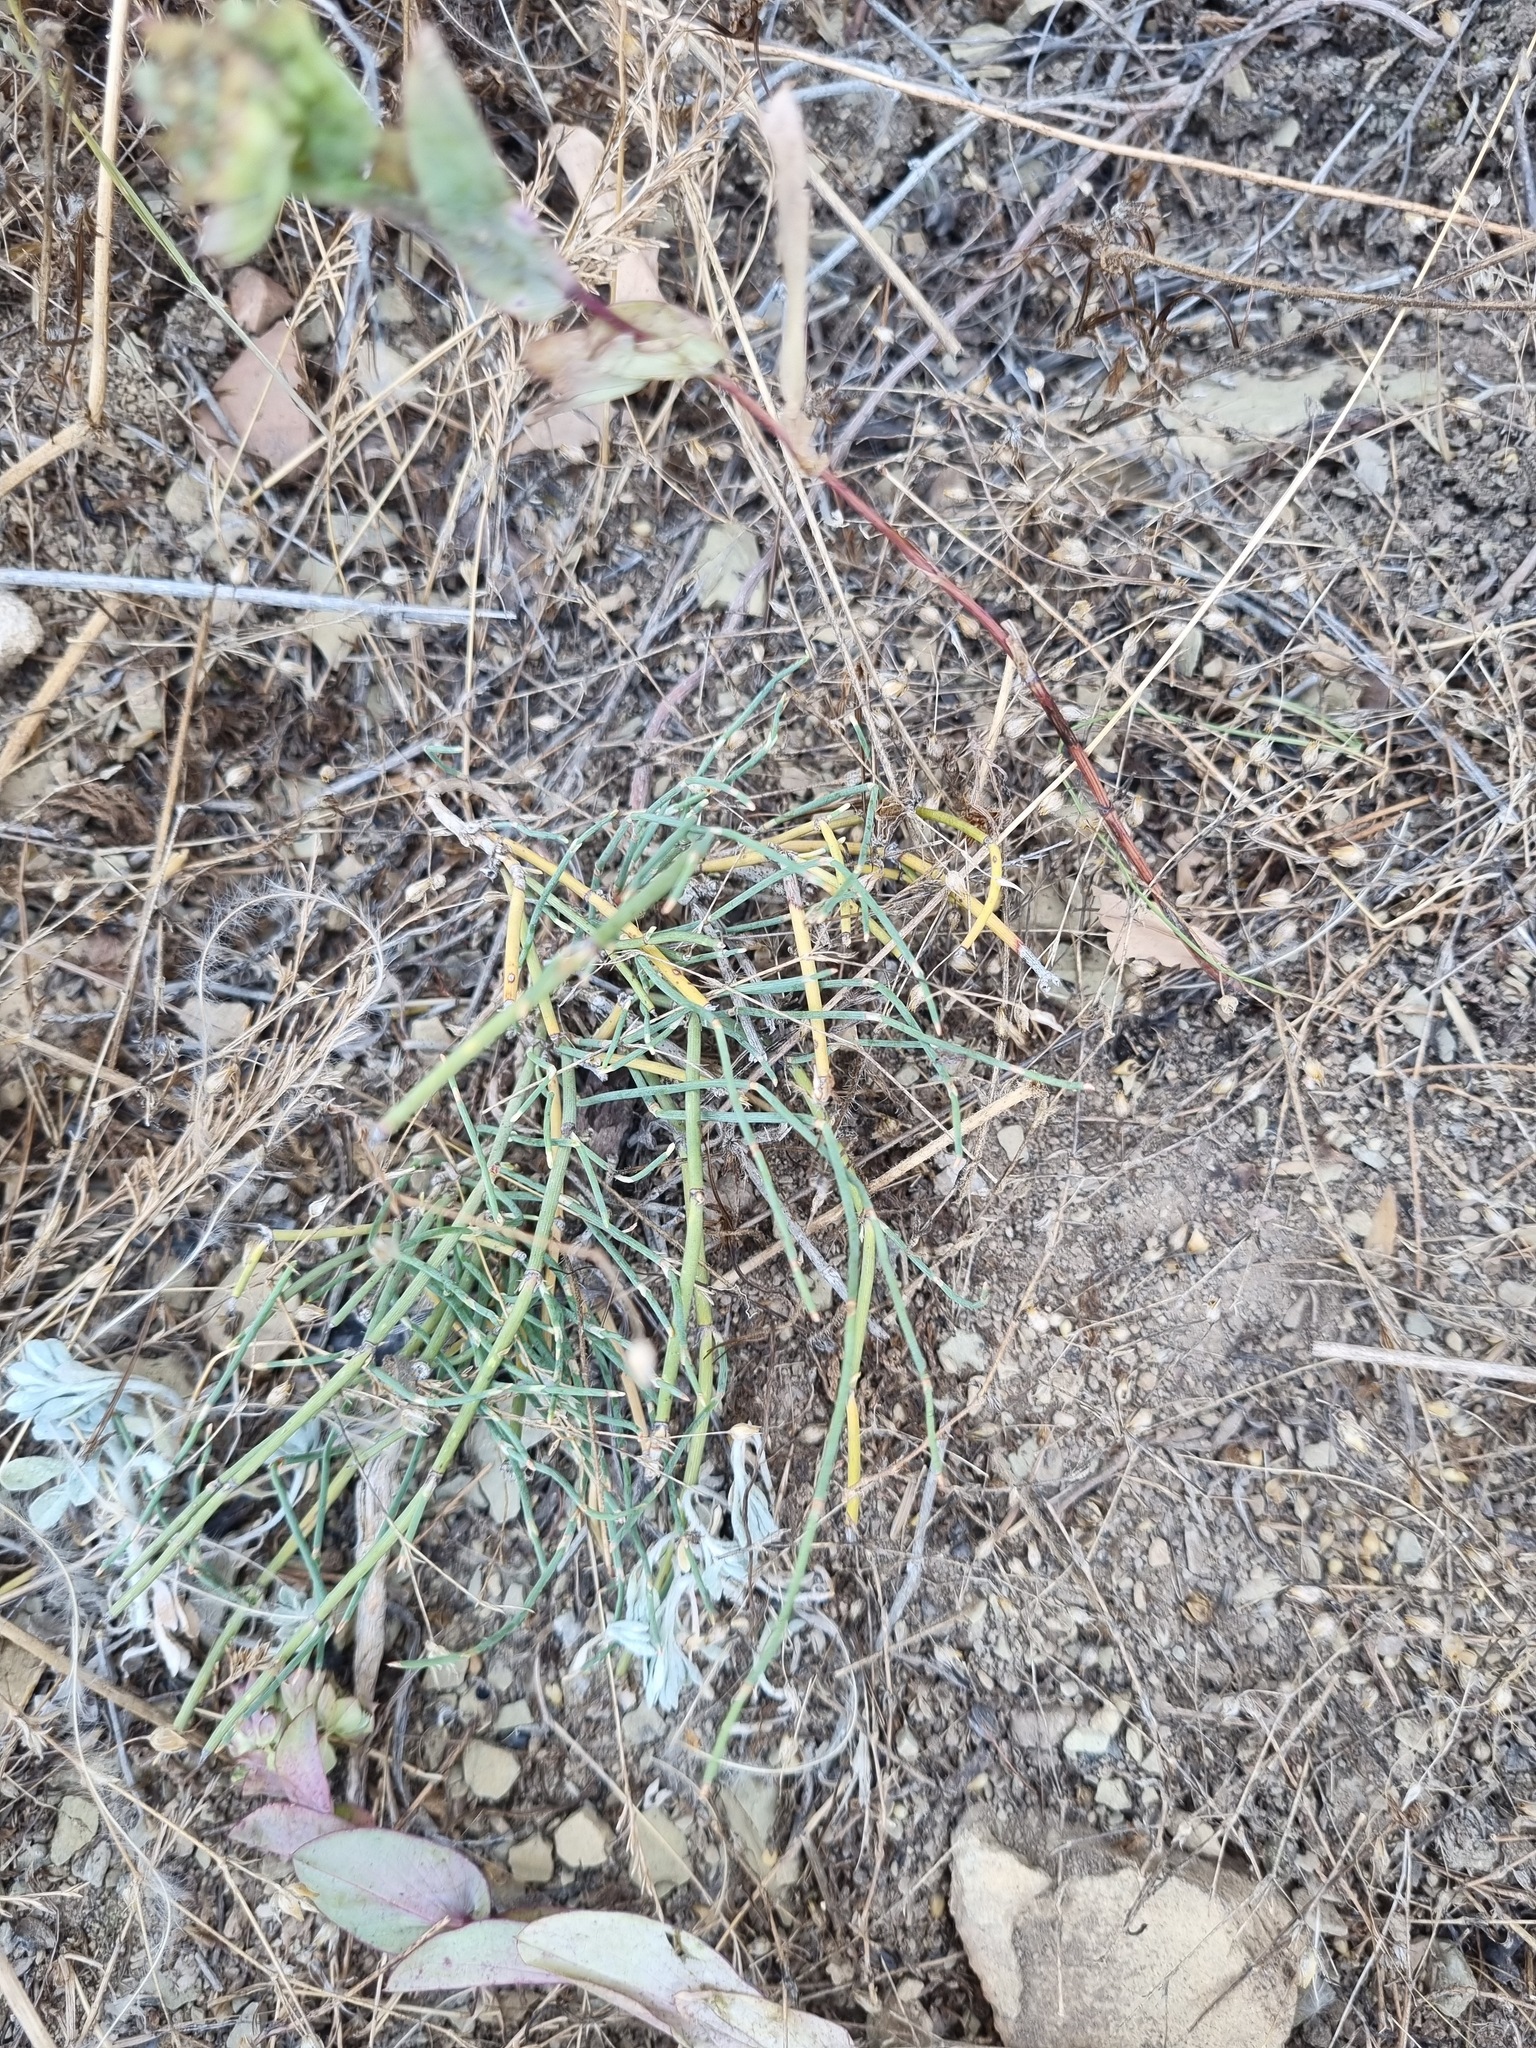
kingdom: Plantae
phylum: Tracheophyta
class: Gnetopsida
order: Ephedrales
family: Ephedraceae
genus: Ephedra
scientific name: Ephedra distachya
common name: Sea grape
